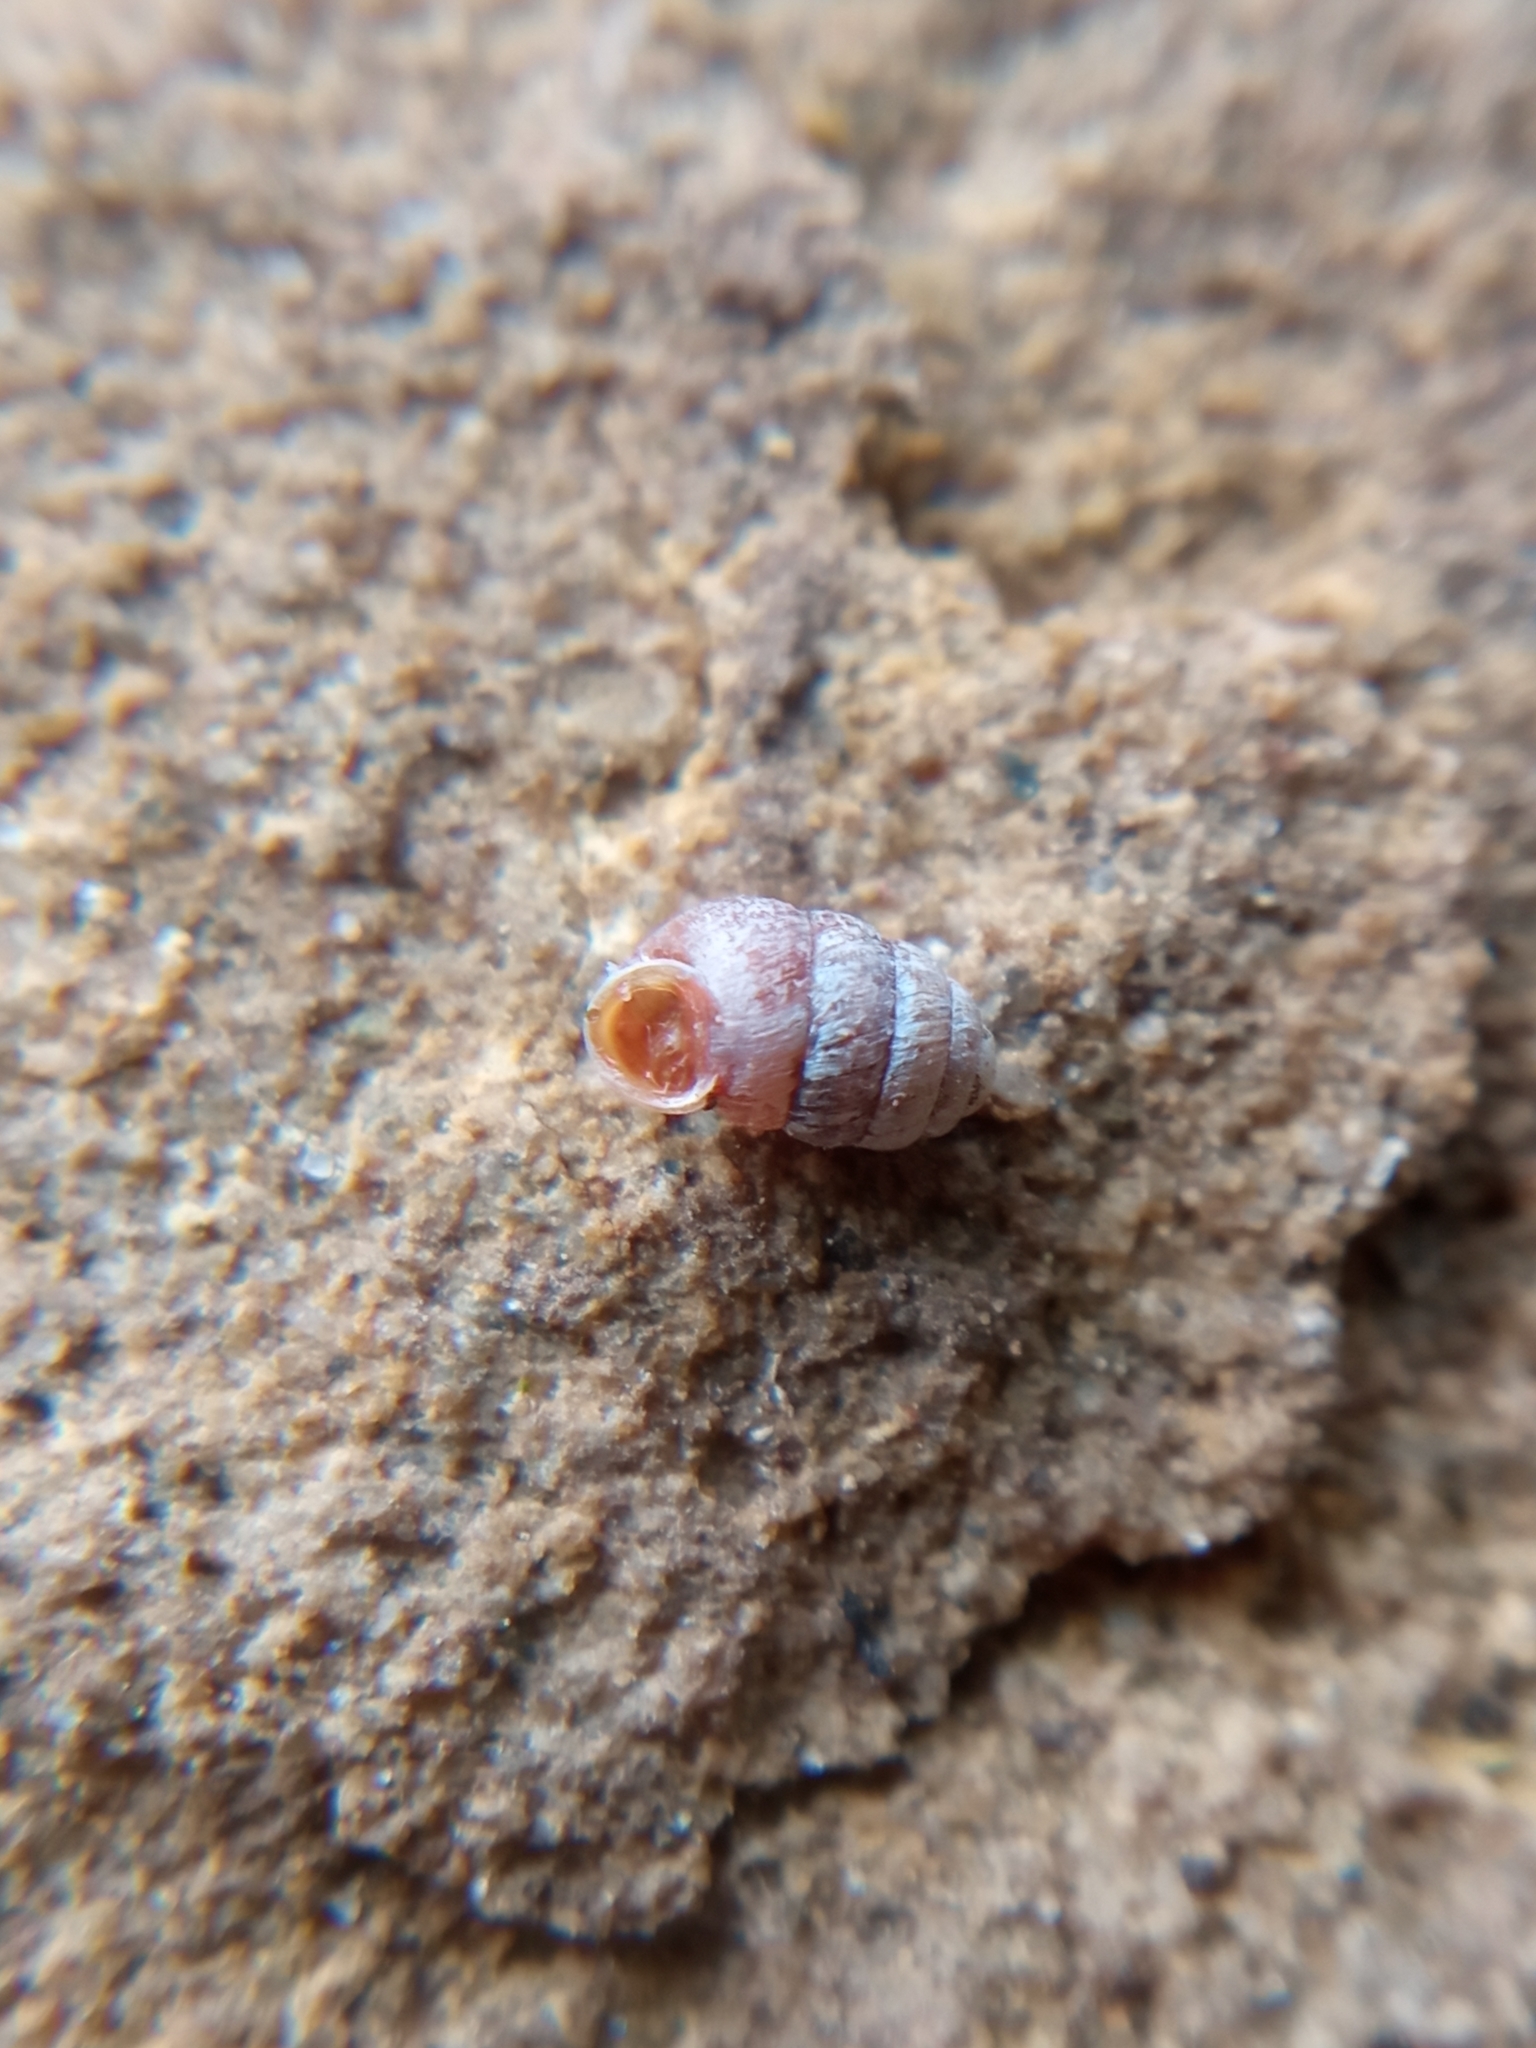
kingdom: Animalia
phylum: Mollusca
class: Gastropoda
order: Stylommatophora
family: Pupillidae
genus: Pupilla
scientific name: Pupilla muscorum
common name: Moss chrysalis snail
